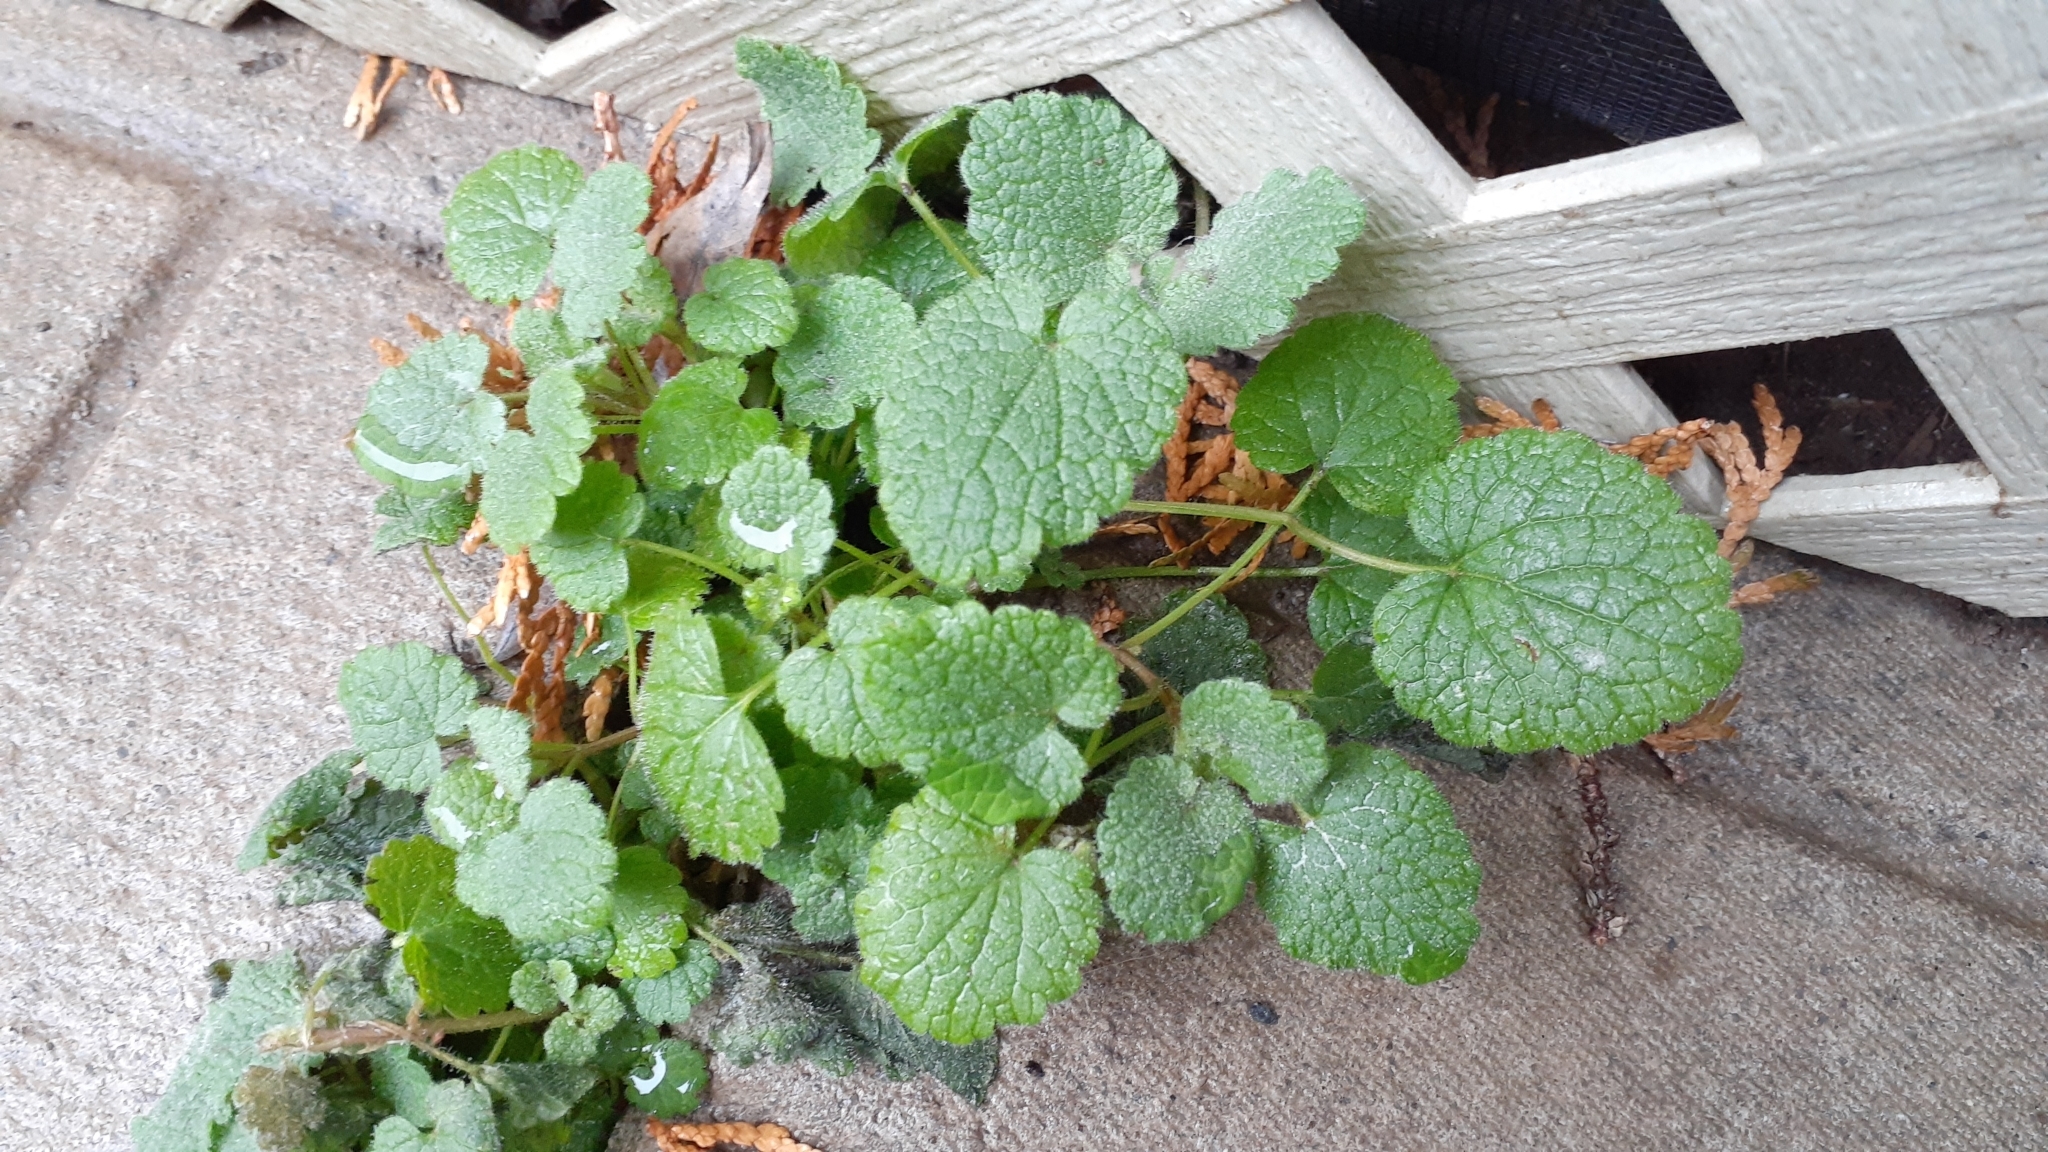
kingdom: Plantae
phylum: Tracheophyta
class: Magnoliopsida
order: Lamiales
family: Lamiaceae
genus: Lamium
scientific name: Lamium purpureum
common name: Red dead-nettle
